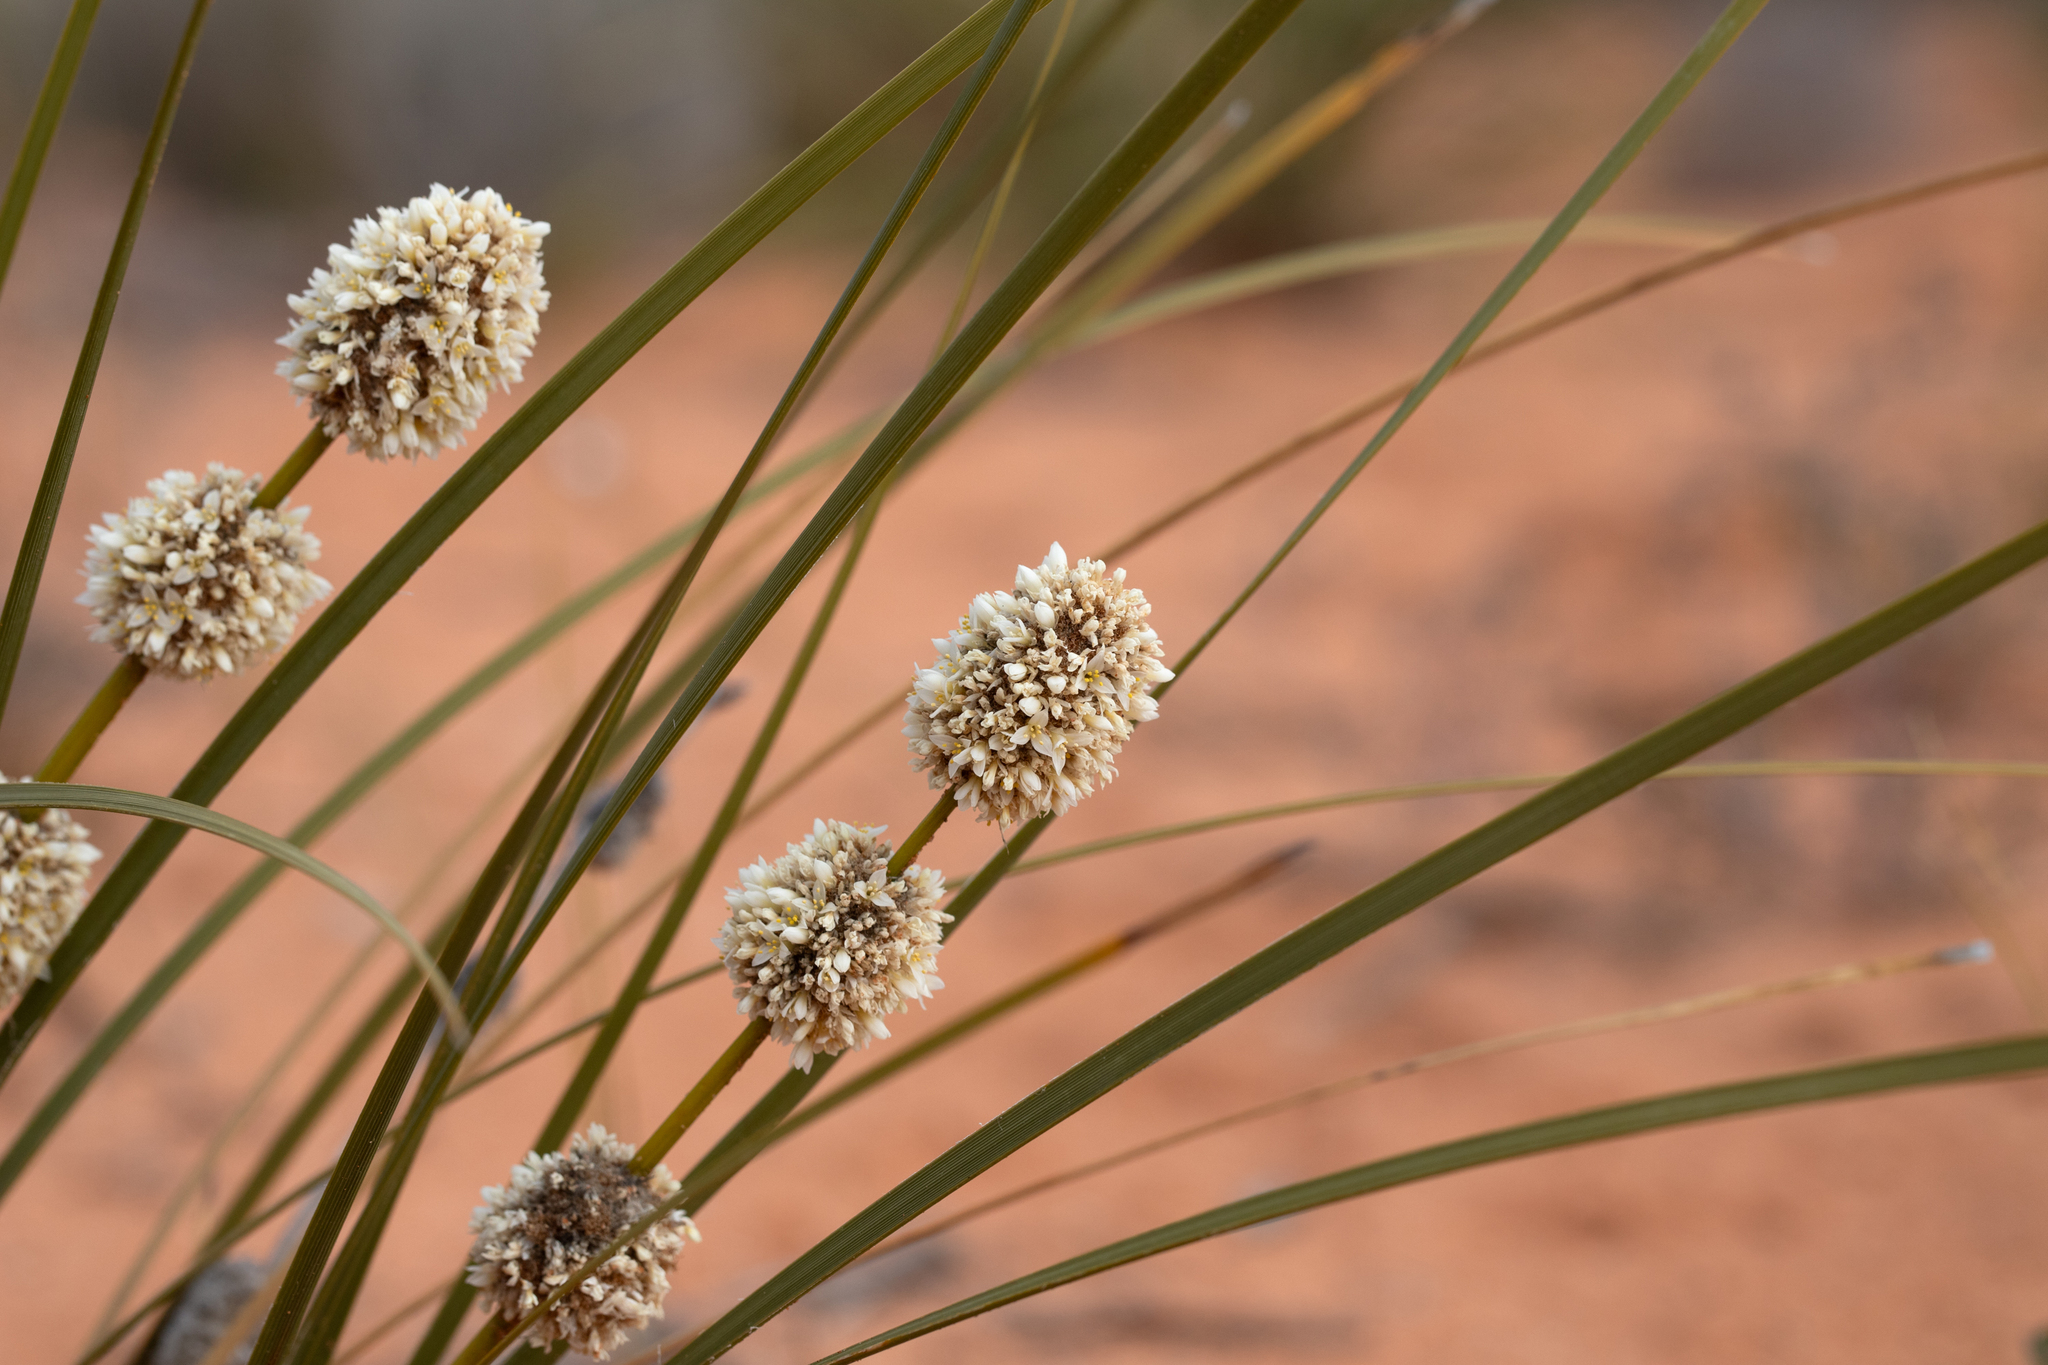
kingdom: Plantae
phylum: Tracheophyta
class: Liliopsida
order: Asparagales
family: Asparagaceae
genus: Lomandra
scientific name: Lomandra leucocephala
